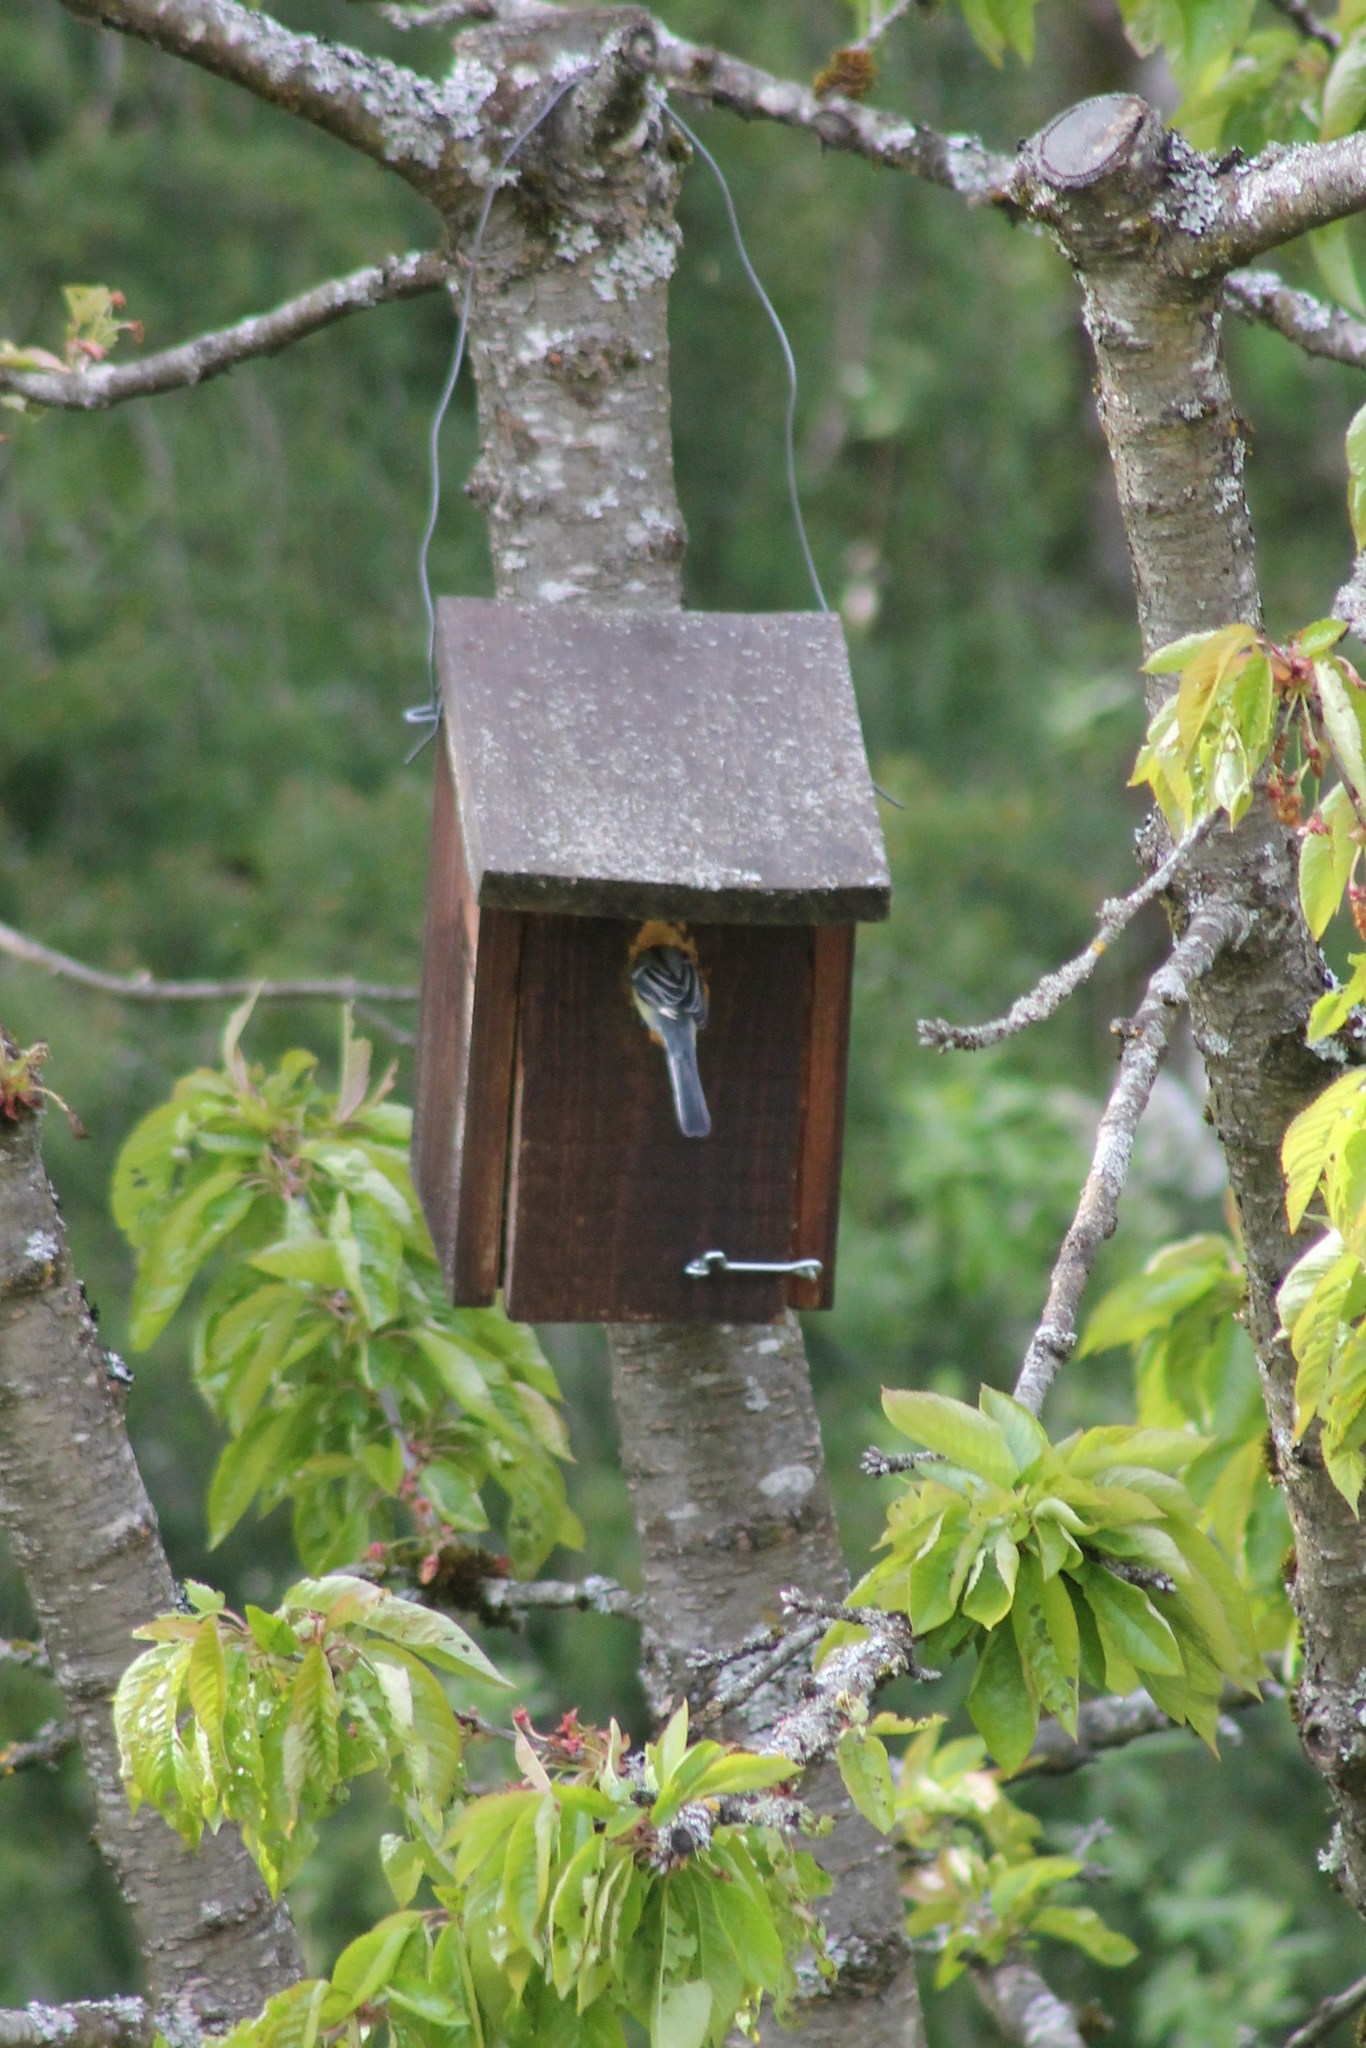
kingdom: Animalia
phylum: Chordata
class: Aves
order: Passeriformes
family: Paridae
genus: Parus
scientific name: Parus major
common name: Great tit
